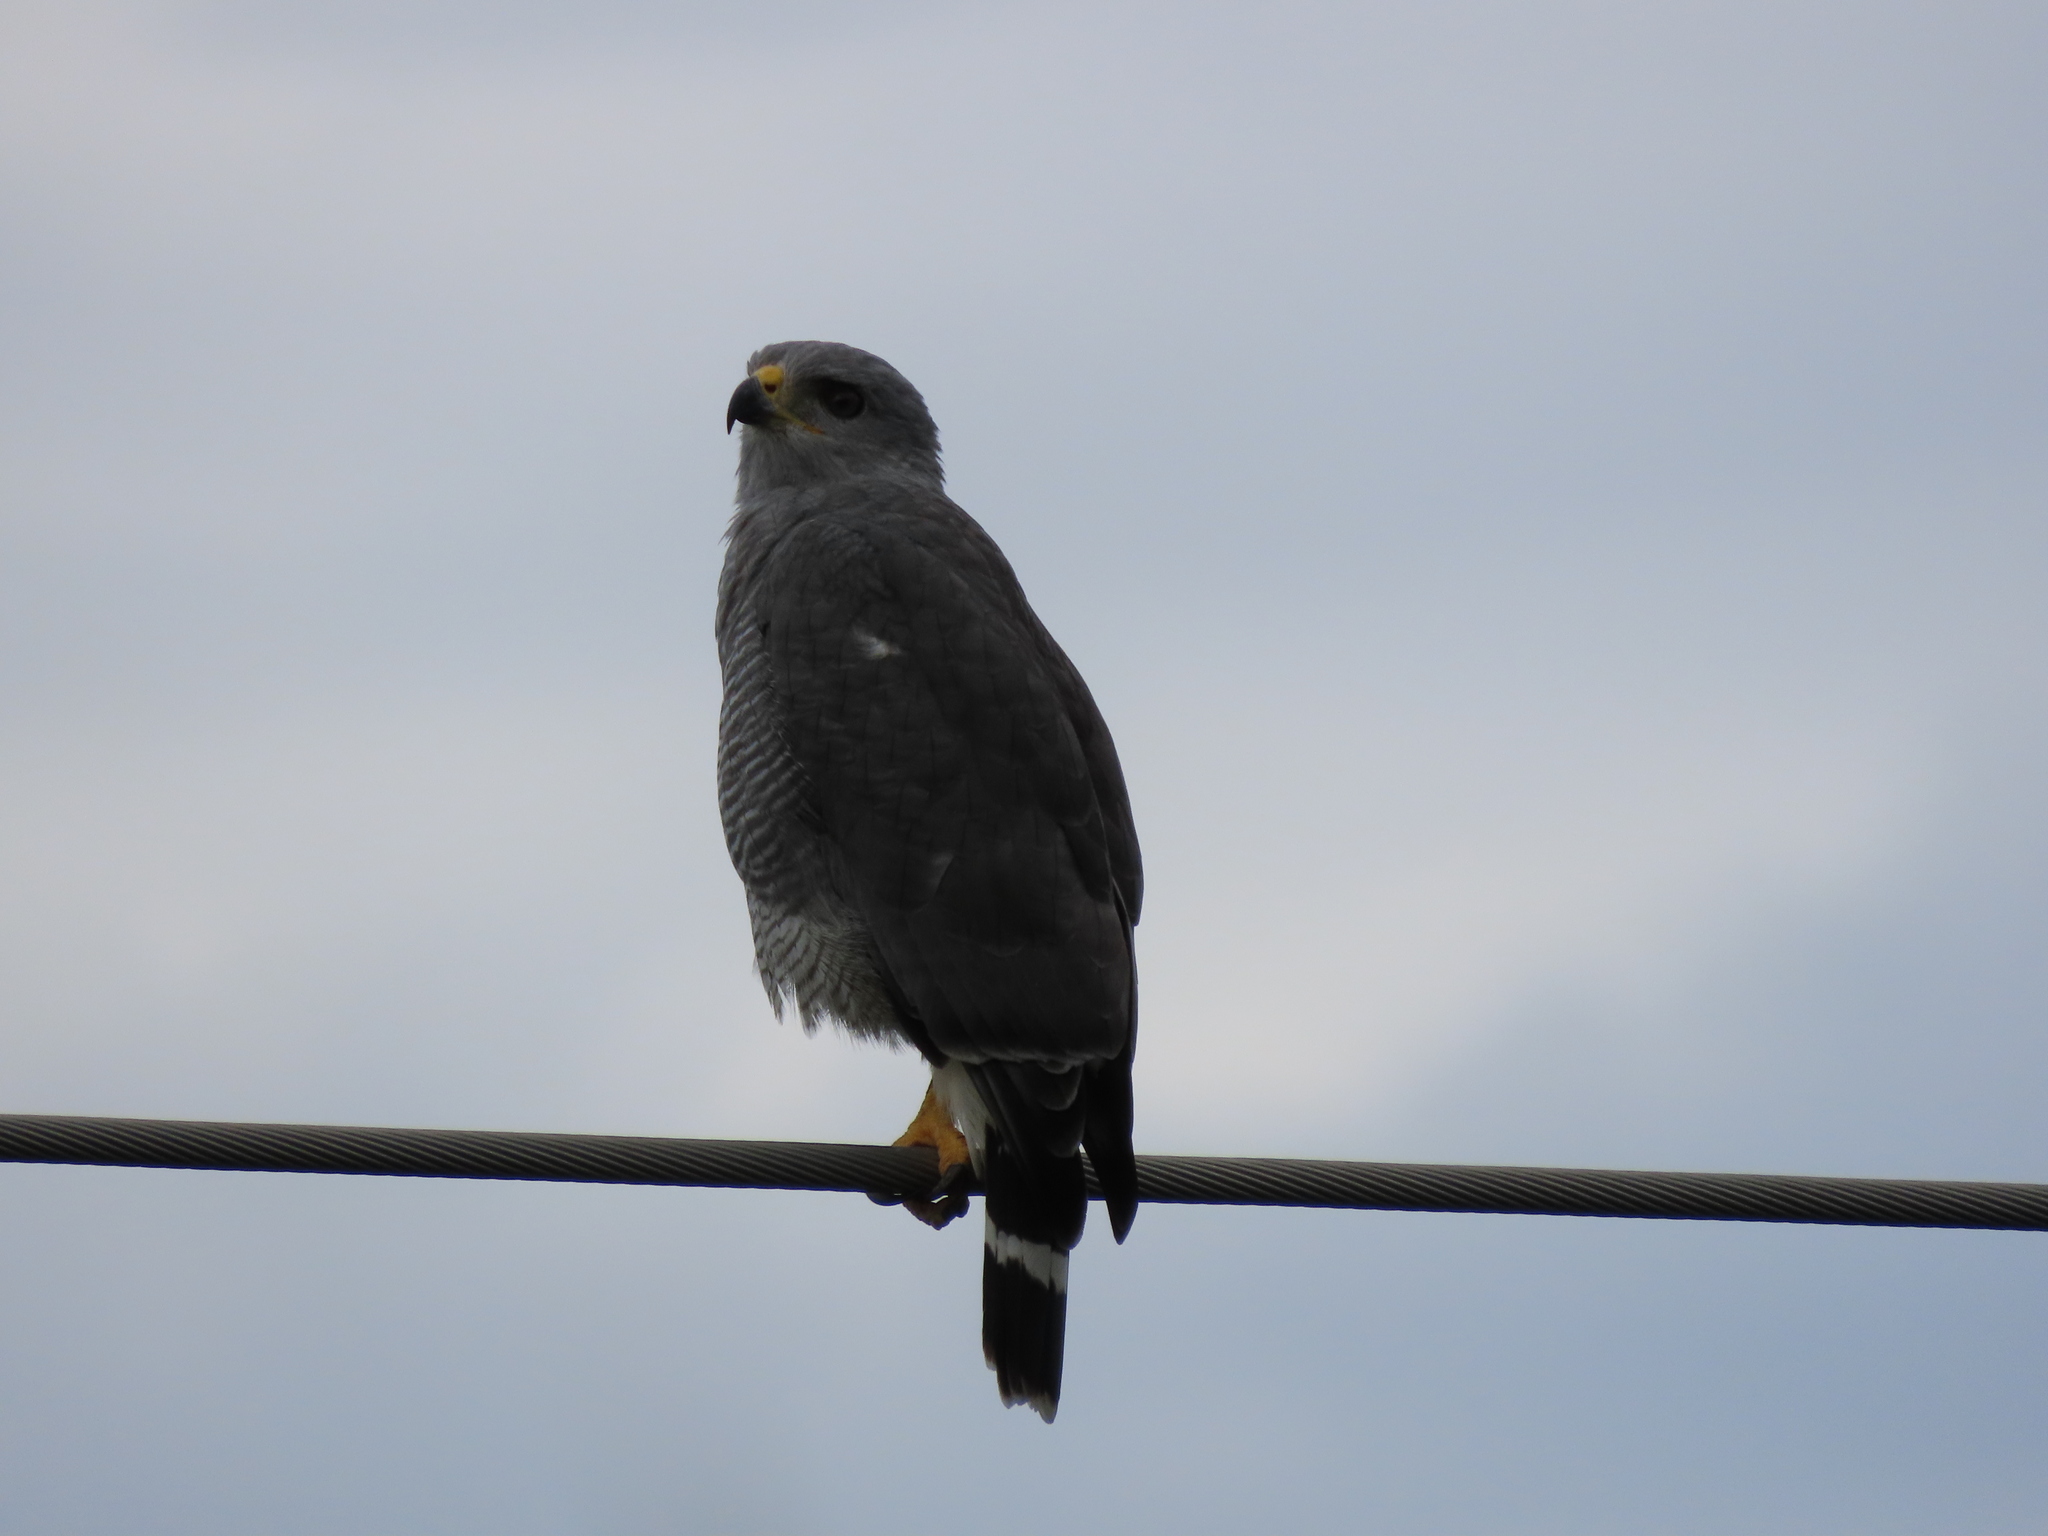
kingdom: Animalia
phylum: Chordata
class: Aves
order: Accipitriformes
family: Accipitridae
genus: Buteo
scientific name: Buteo nitidus
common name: Grey-lined hawk
